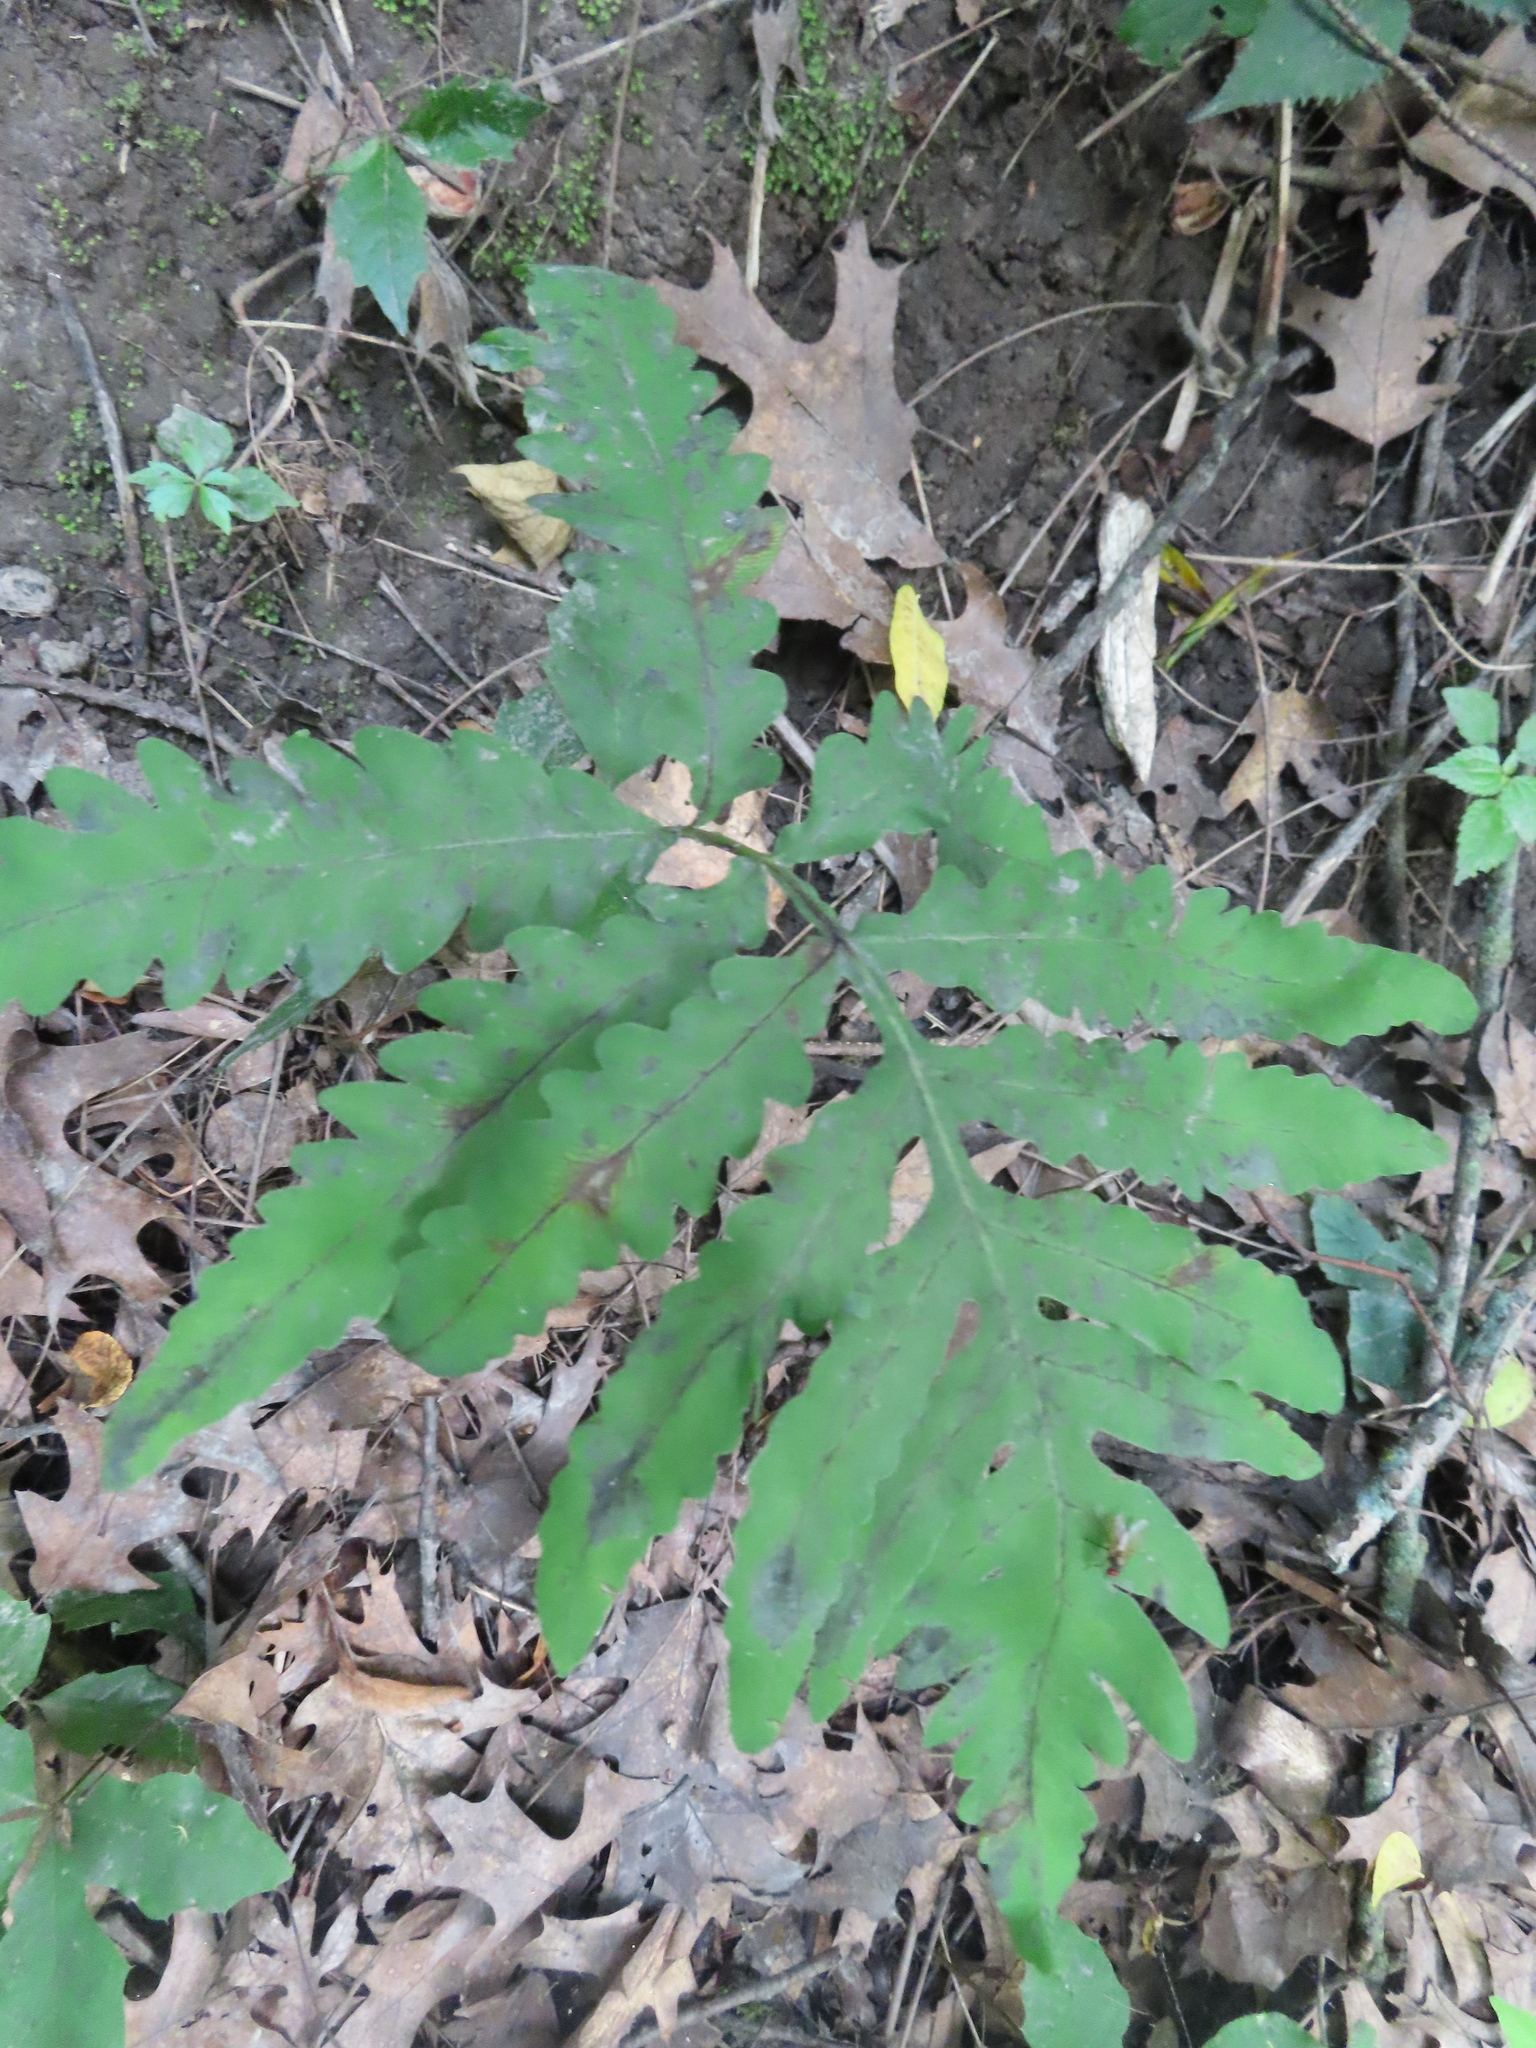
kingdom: Plantae
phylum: Tracheophyta
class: Polypodiopsida
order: Polypodiales
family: Onocleaceae
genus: Onoclea
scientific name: Onoclea sensibilis
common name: Sensitive fern
